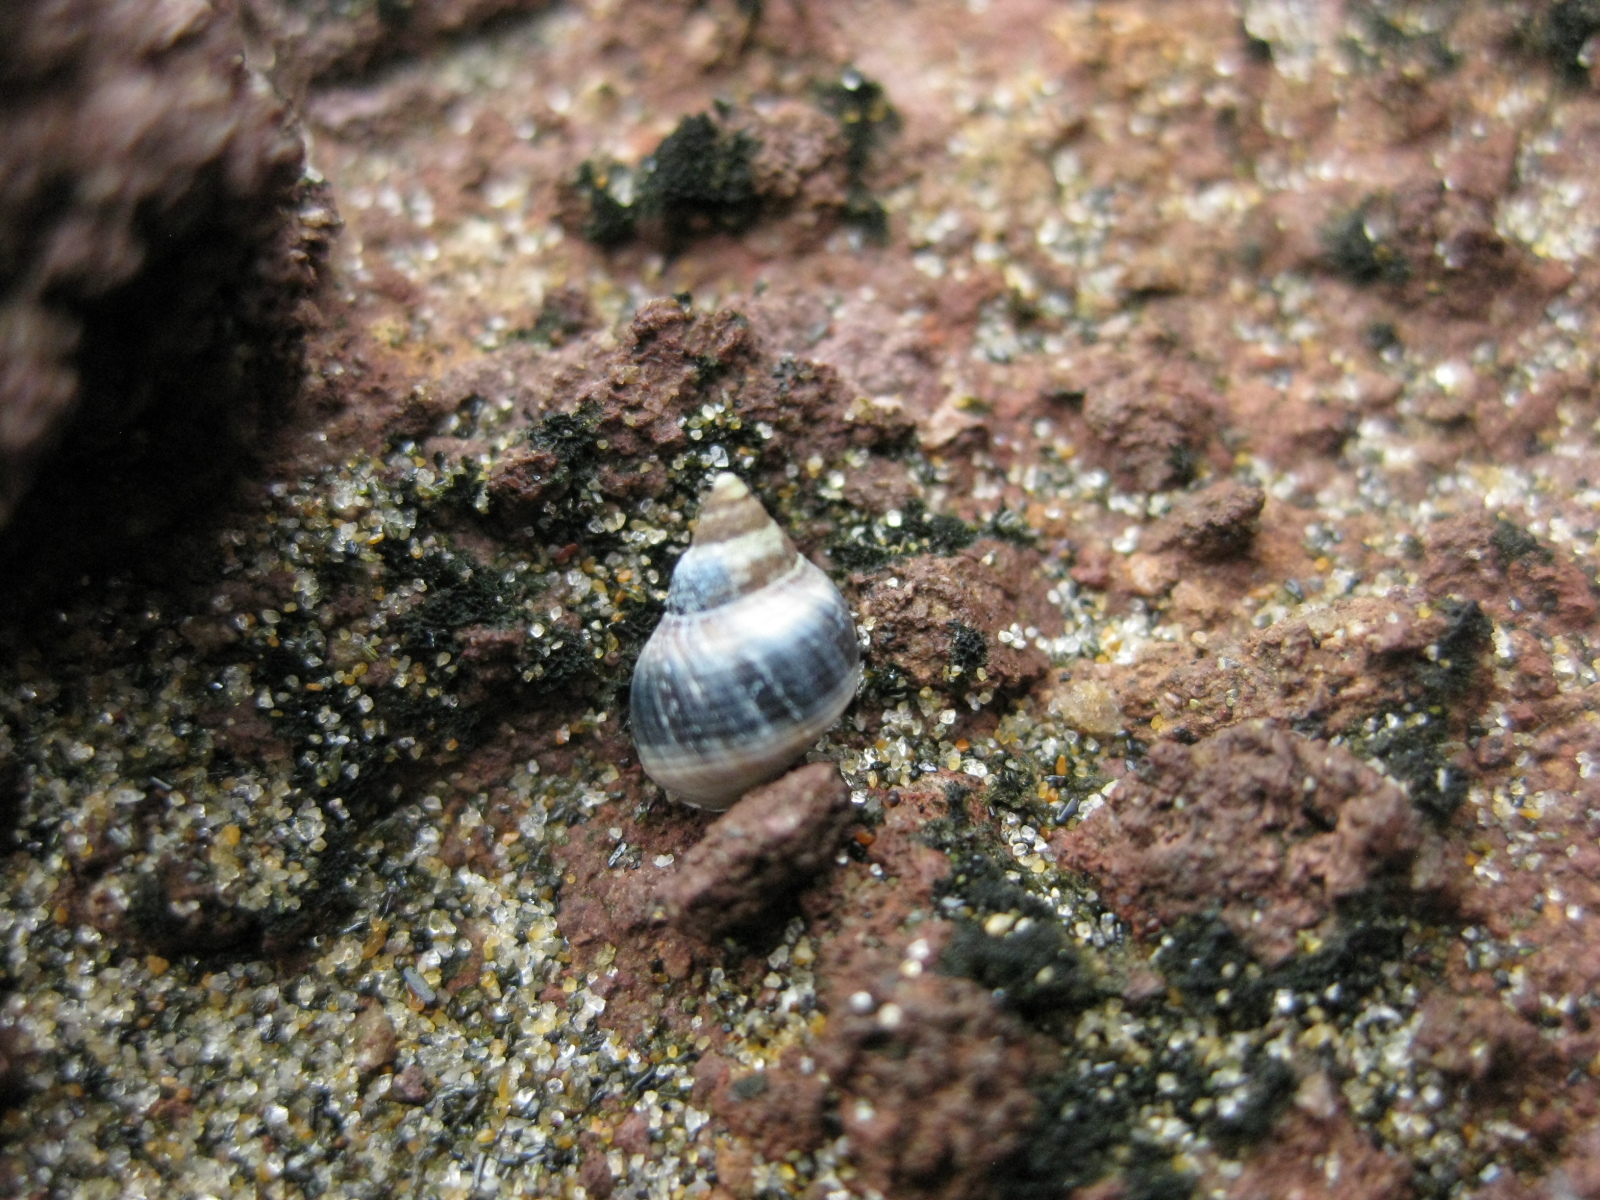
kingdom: Animalia
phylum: Mollusca
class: Gastropoda
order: Littorinimorpha
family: Littorinidae
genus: Austrolittorina
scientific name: Austrolittorina antipodum
